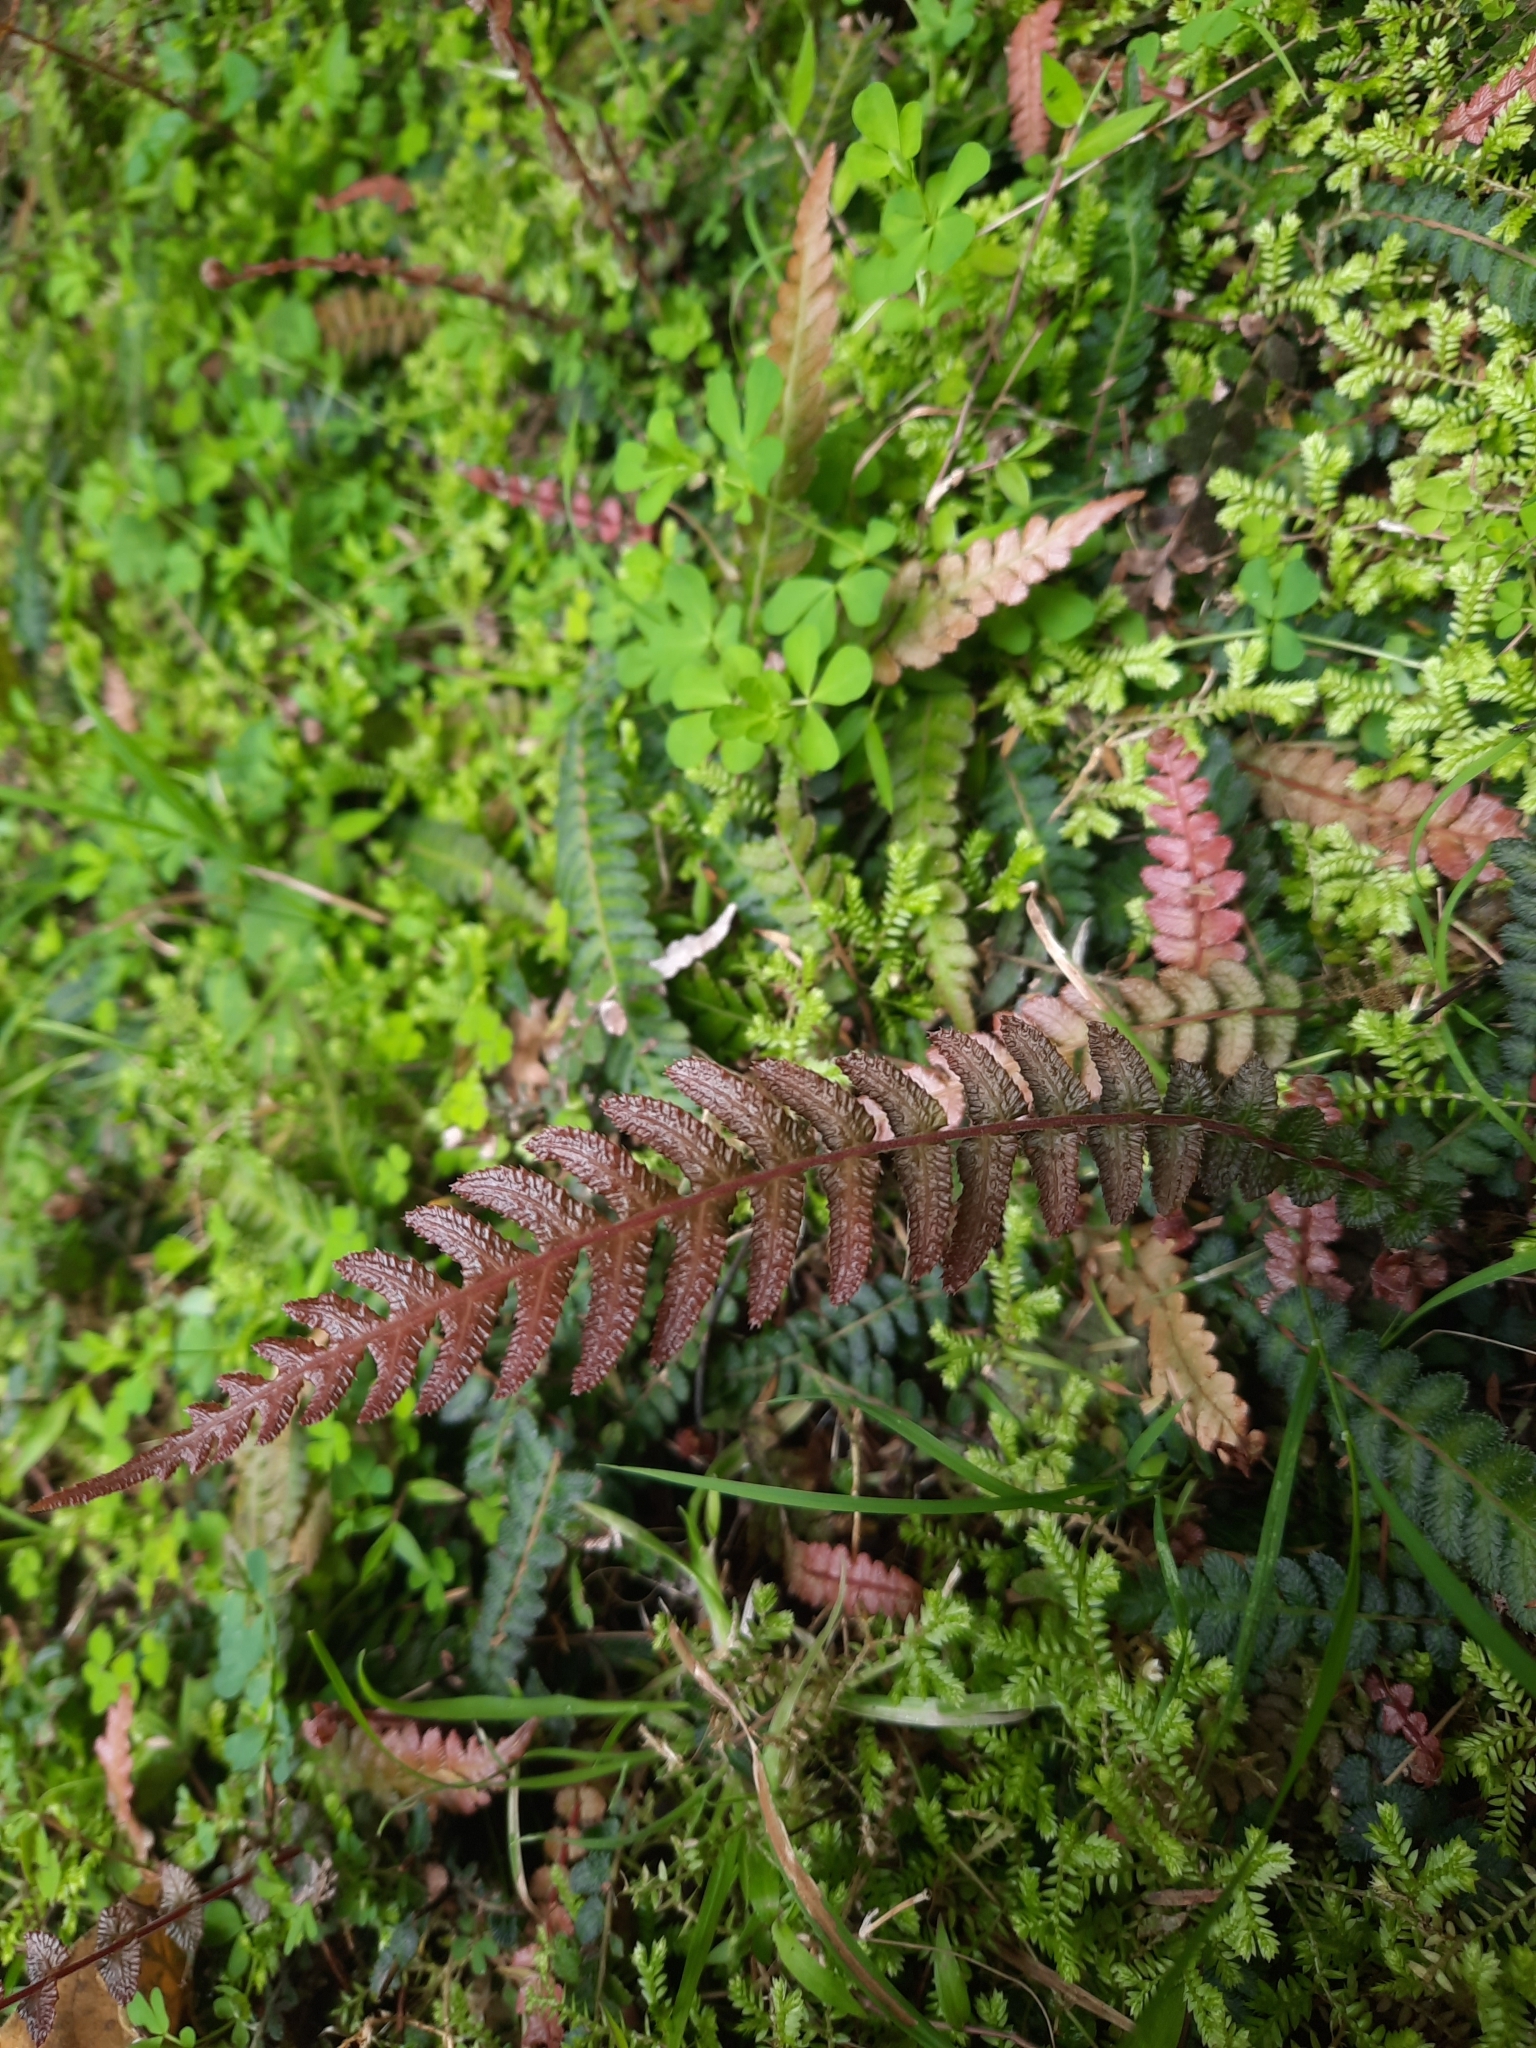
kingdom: Plantae
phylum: Tracheophyta
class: Polypodiopsida
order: Polypodiales
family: Blechnaceae
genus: Doodia
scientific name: Doodia australis
